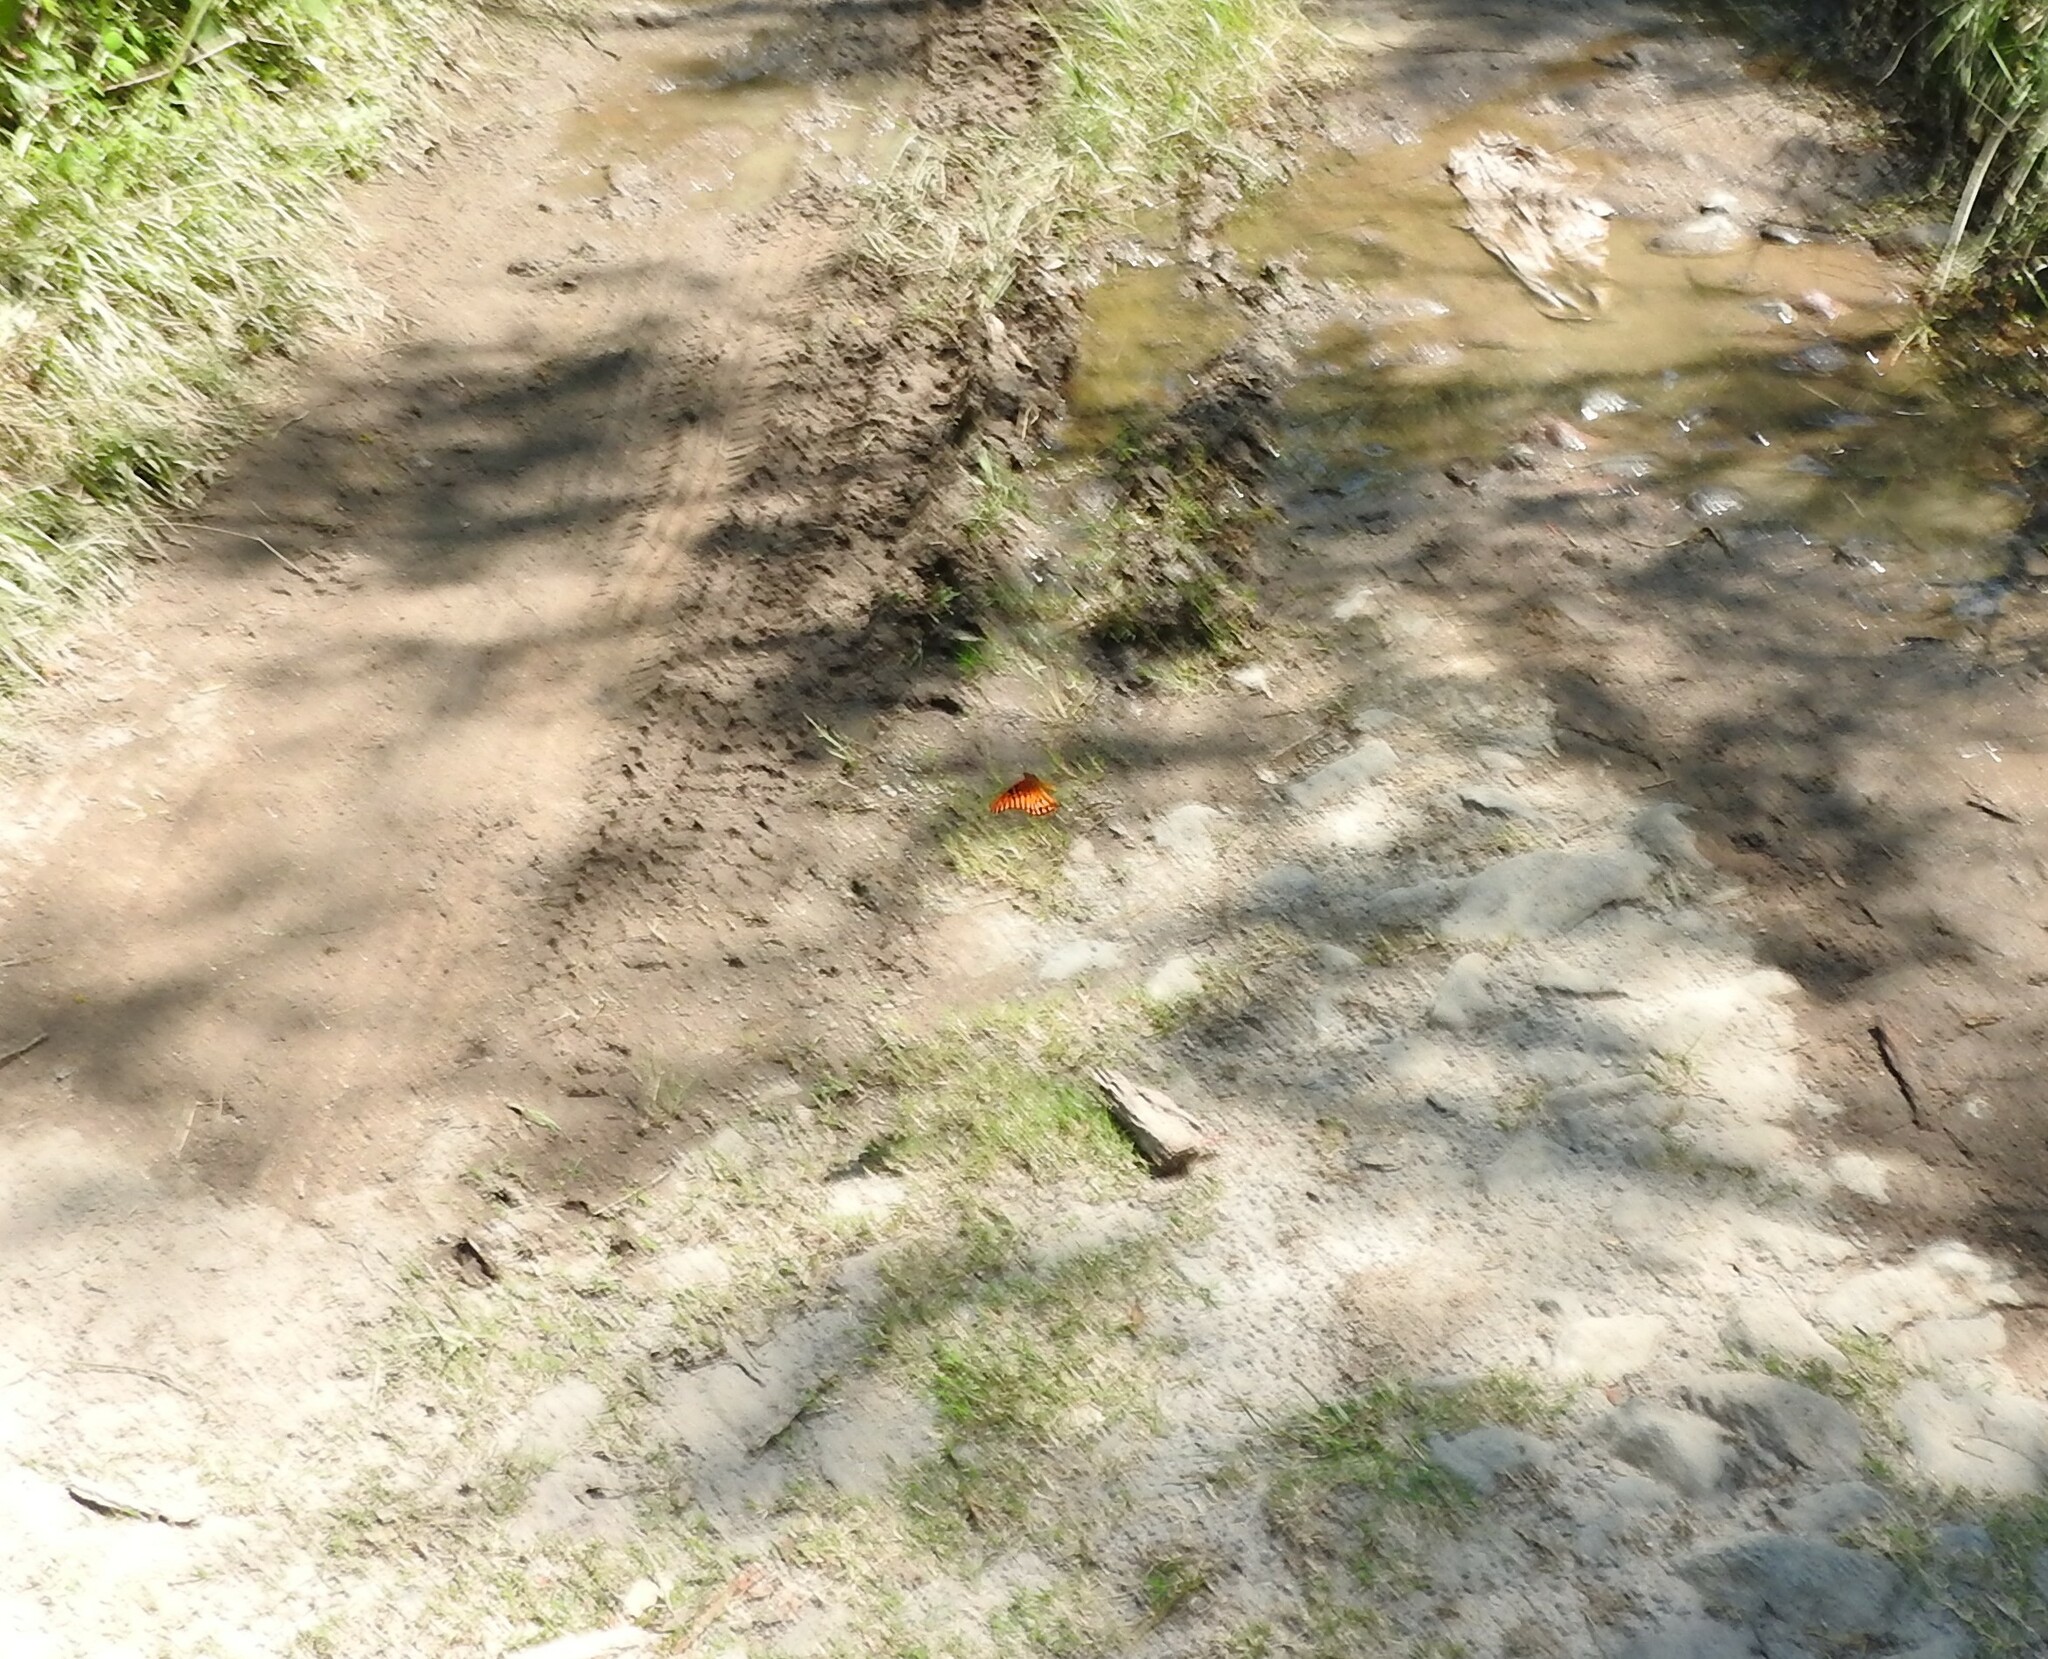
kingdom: Animalia
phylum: Arthropoda
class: Insecta
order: Lepidoptera
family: Nymphalidae
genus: Dione
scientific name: Dione moneta
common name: Mexican silverspot
